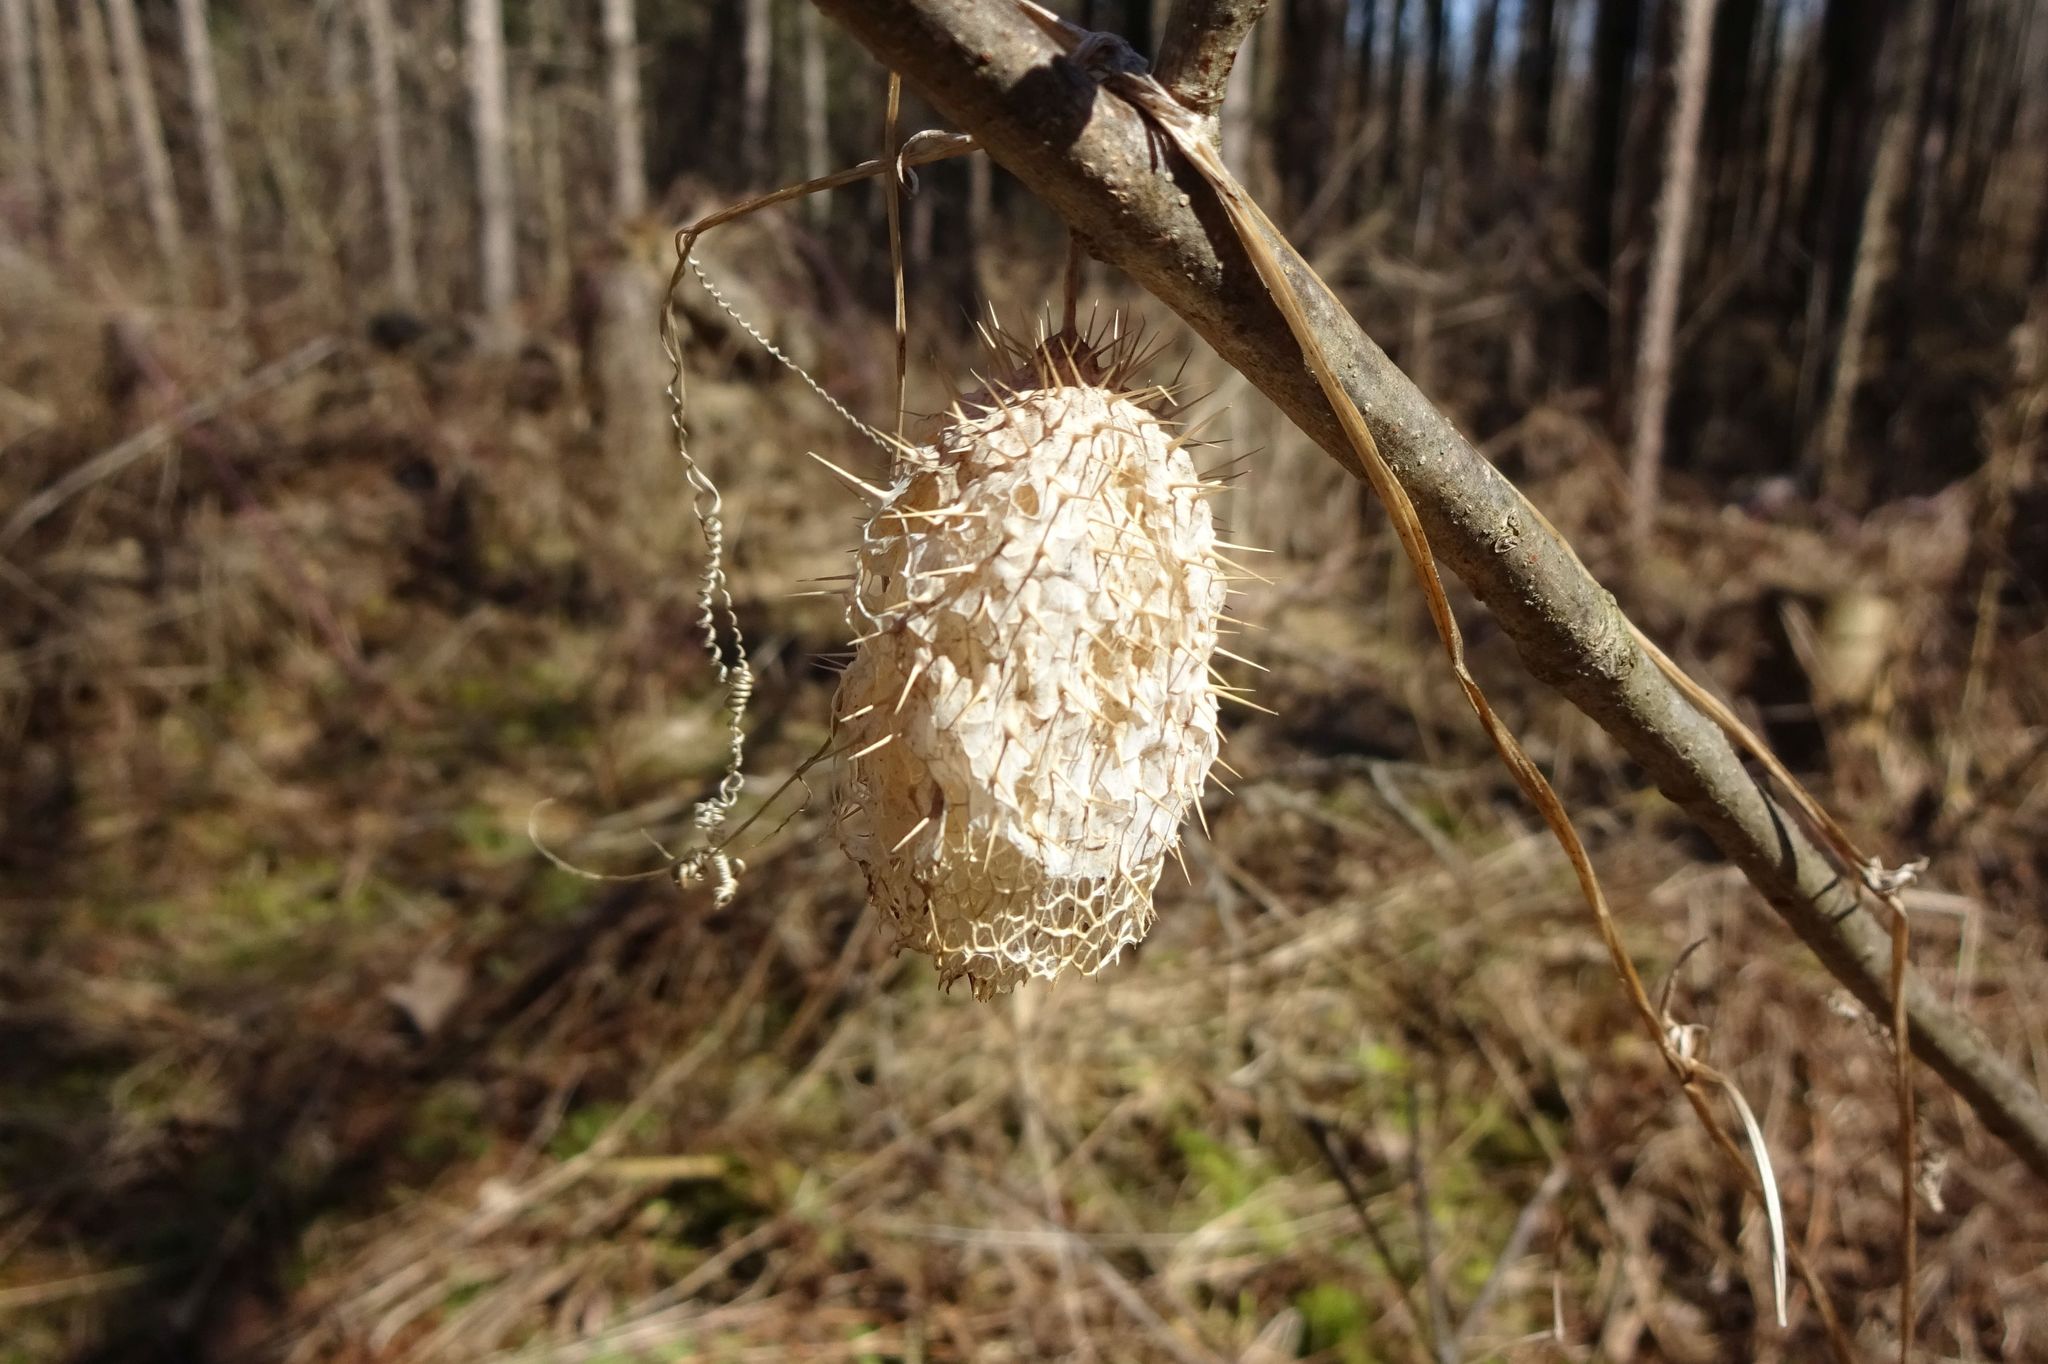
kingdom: Plantae
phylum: Tracheophyta
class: Magnoliopsida
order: Cucurbitales
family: Cucurbitaceae
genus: Echinocystis
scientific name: Echinocystis lobata
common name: Wild cucumber
